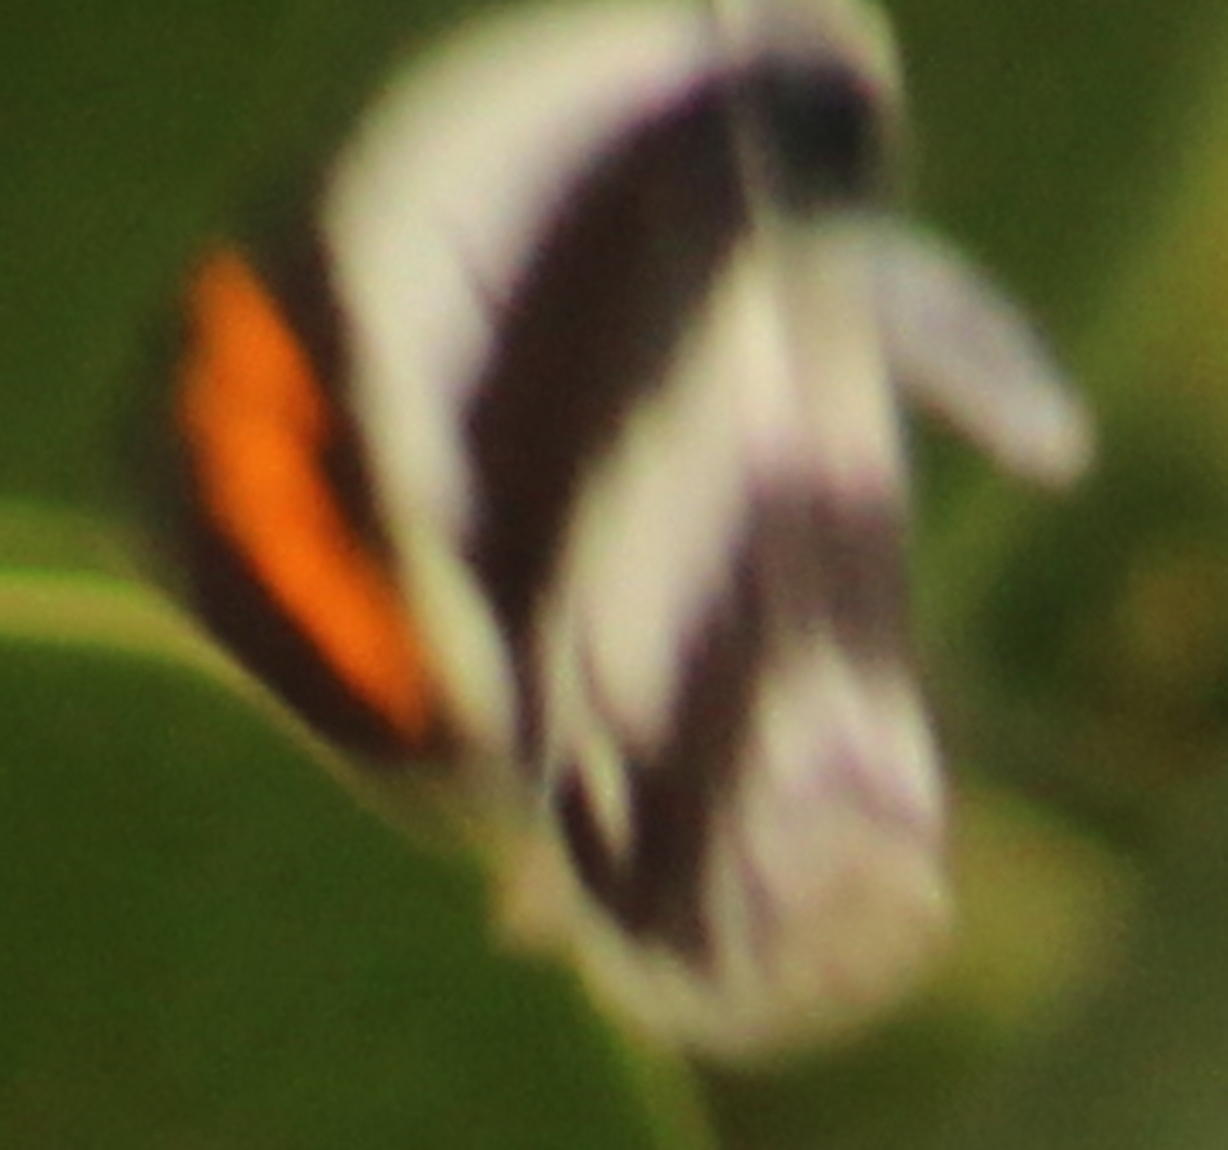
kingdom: Animalia
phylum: Arthropoda
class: Insecta
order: Lepidoptera
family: Pieridae
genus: Colotis
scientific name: Colotis euippe
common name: Round-winged orange tip
